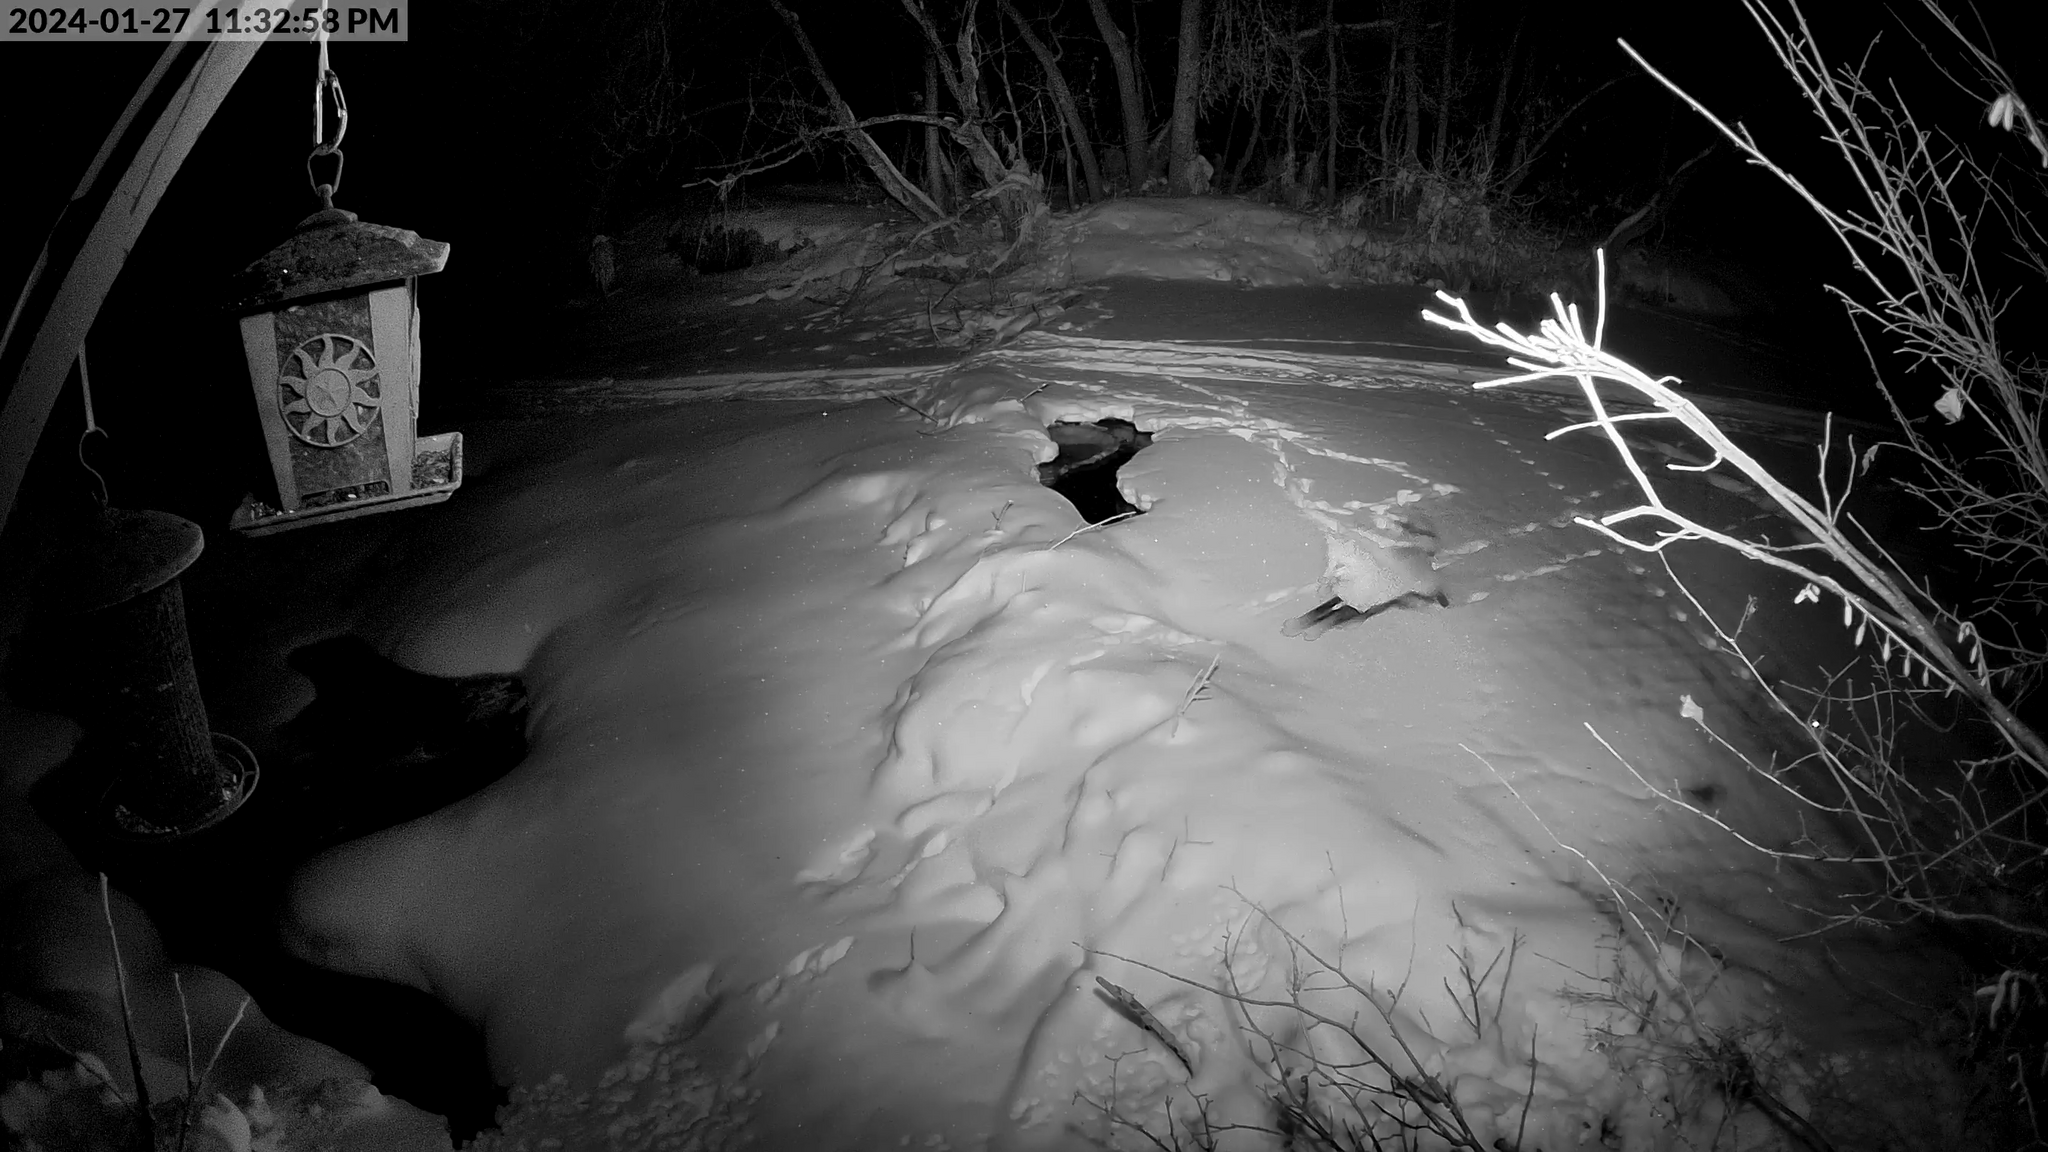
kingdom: Animalia
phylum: Chordata
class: Mammalia
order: Carnivora
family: Canidae
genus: Vulpes
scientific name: Vulpes vulpes
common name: Red fox
